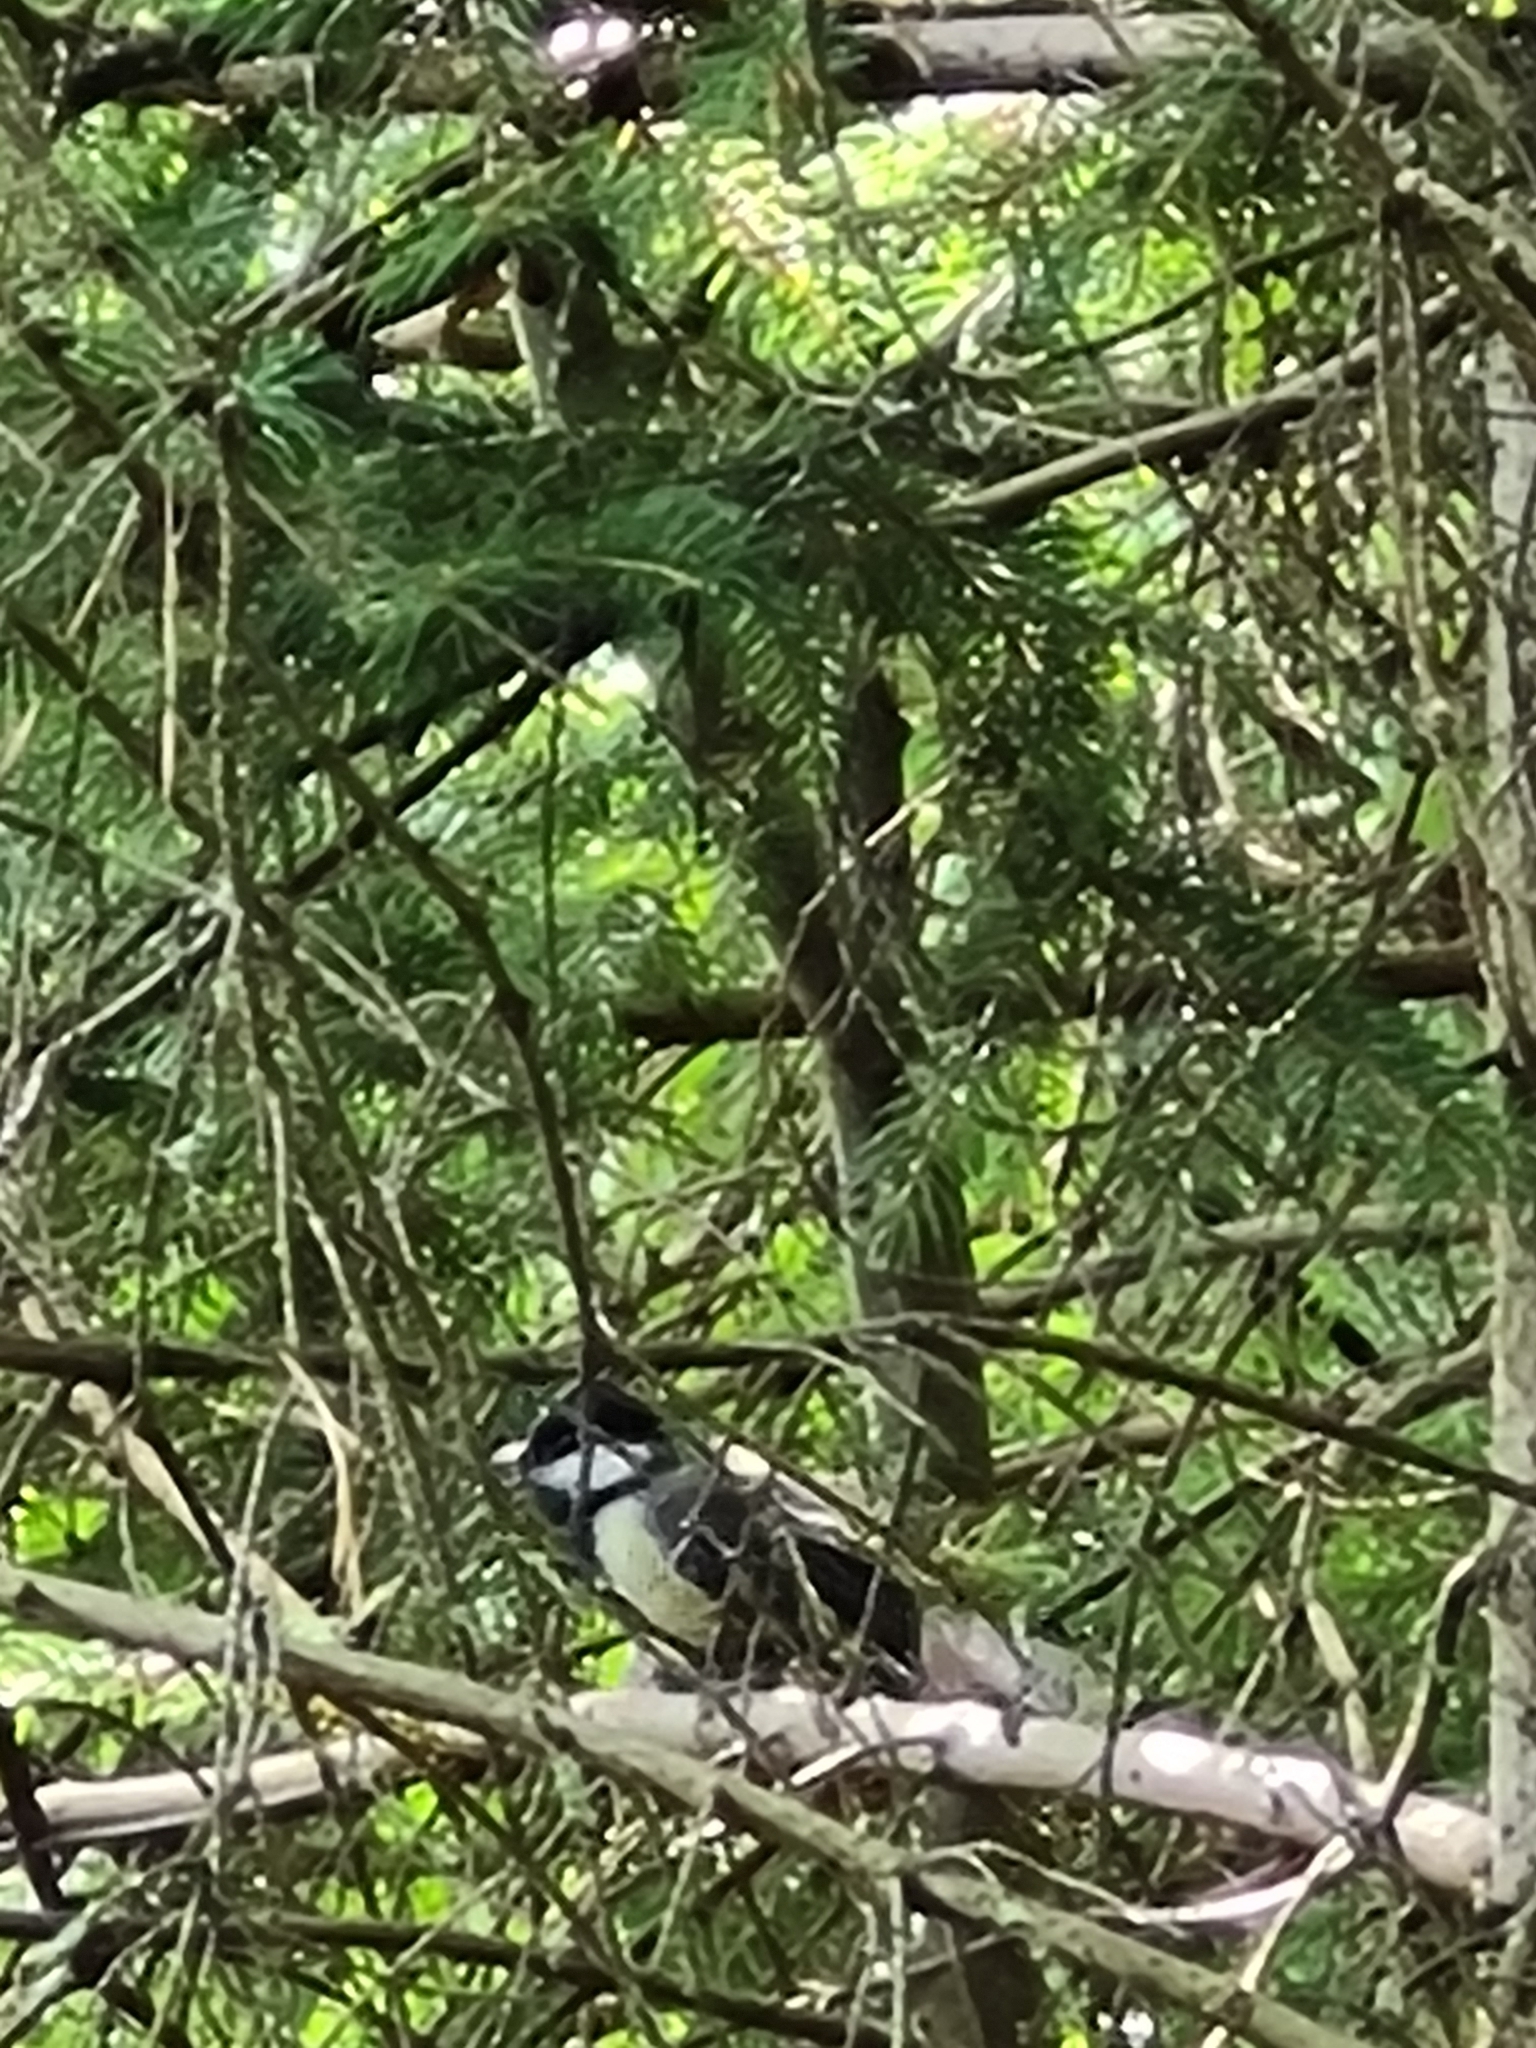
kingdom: Animalia
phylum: Chordata
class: Aves
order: Passeriformes
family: Paridae
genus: Parus
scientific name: Parus major
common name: Great tit
